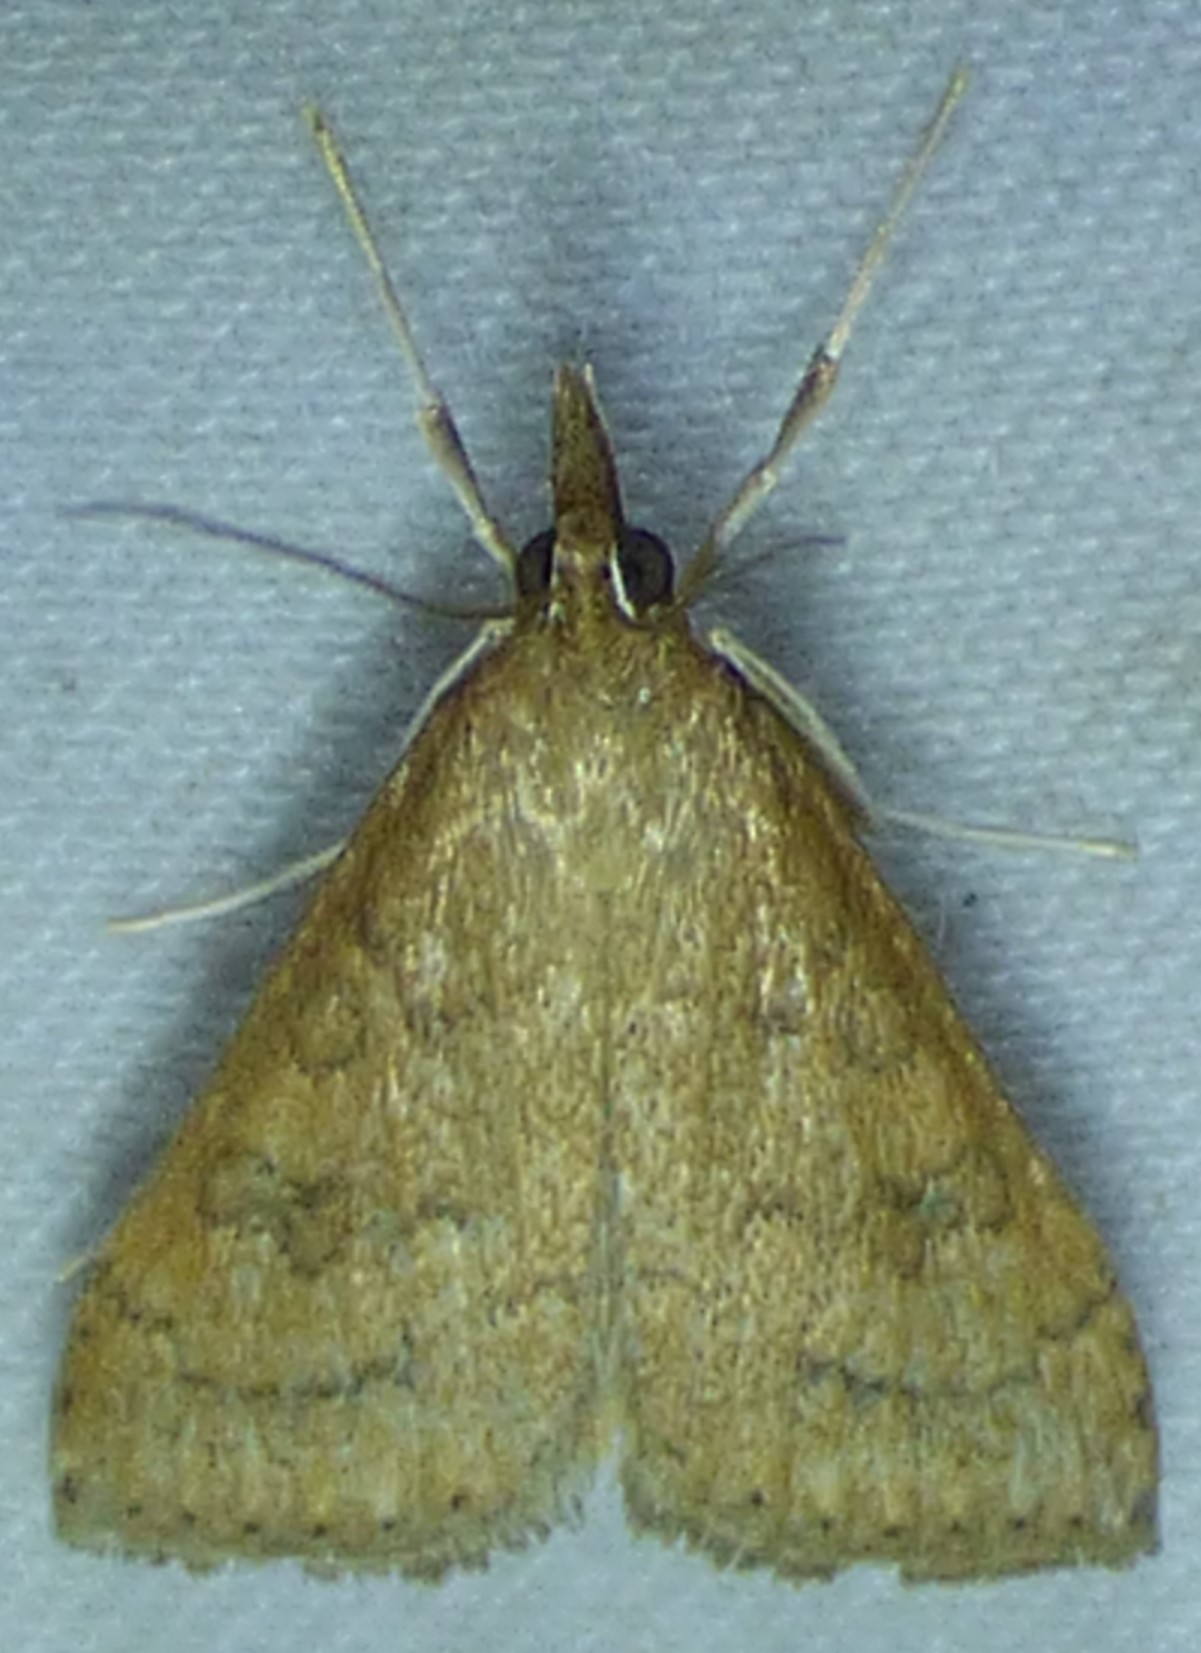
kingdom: Animalia
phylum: Arthropoda
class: Insecta
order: Lepidoptera
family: Crambidae
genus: Udea
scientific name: Udea rubigalis
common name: Celery leaftier moth
